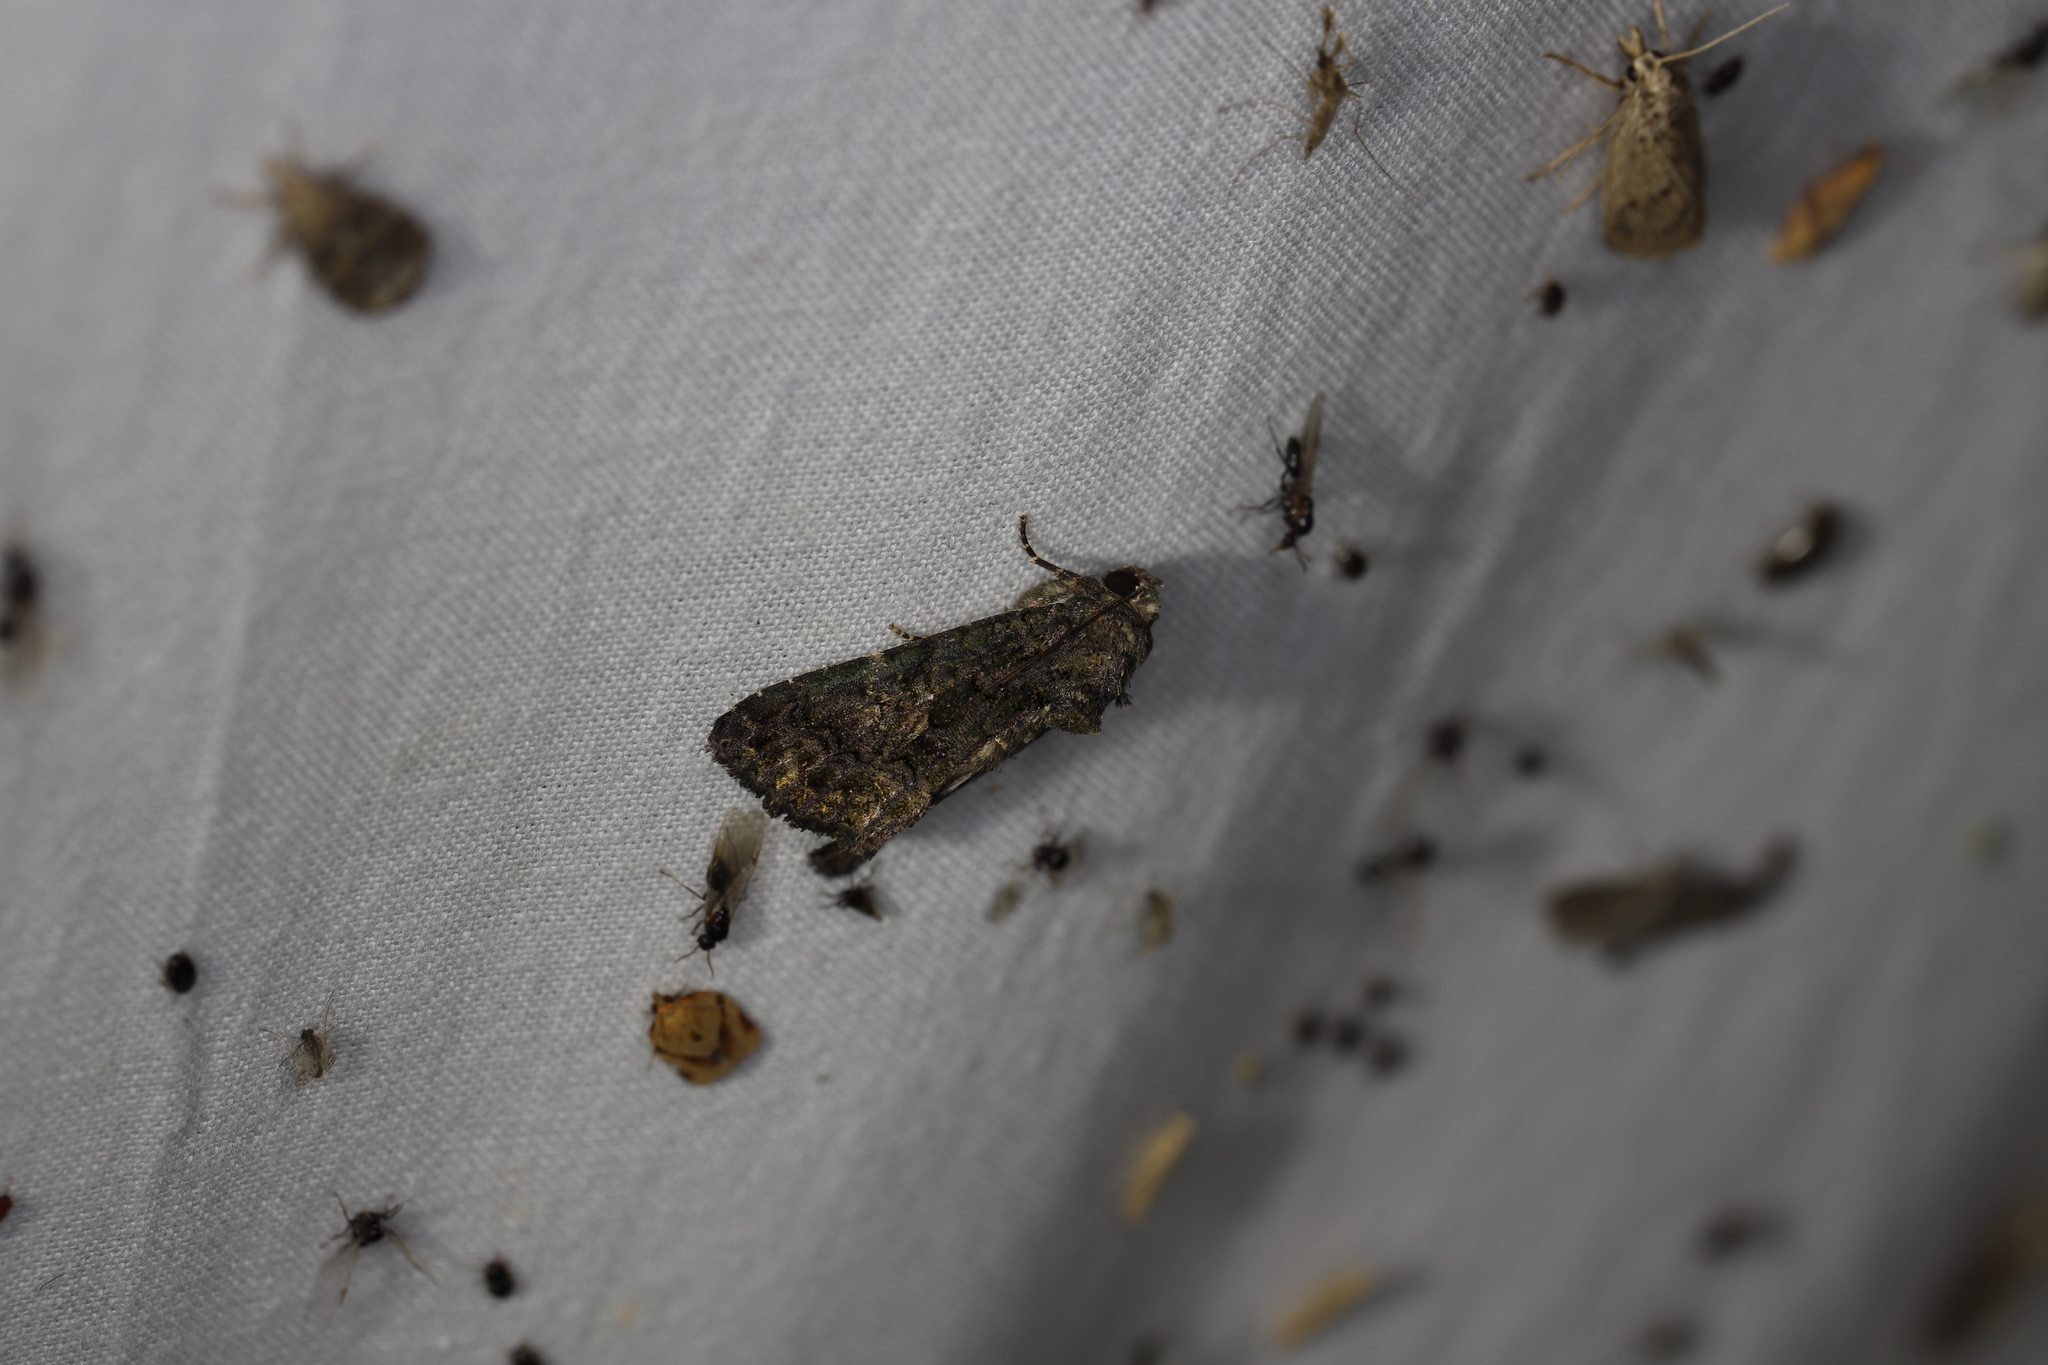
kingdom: Animalia
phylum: Arthropoda
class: Insecta
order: Lepidoptera
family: Noctuidae
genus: Aedia
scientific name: Aedia leucomelas
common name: Sorcerer
